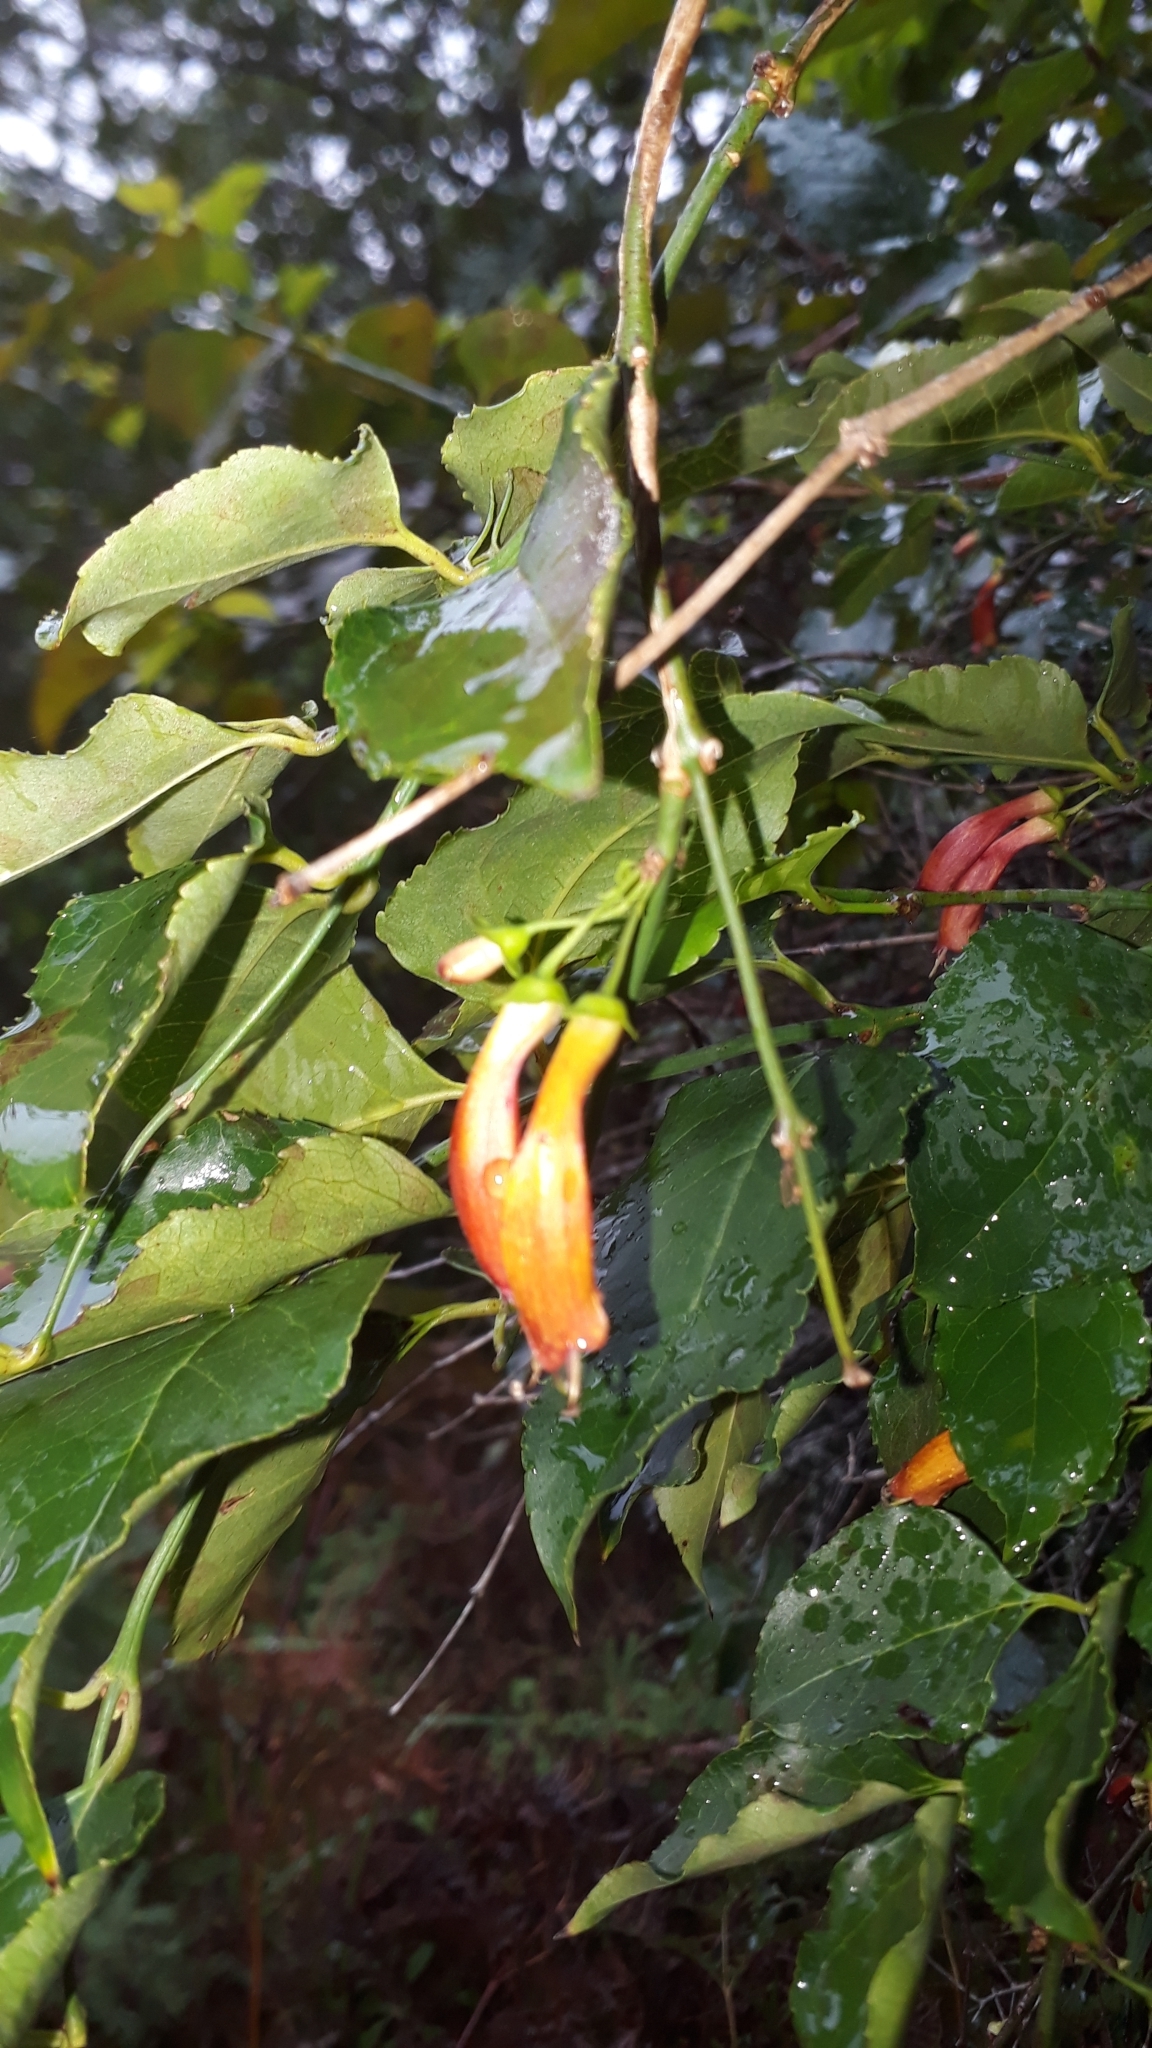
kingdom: Plantae
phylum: Tracheophyta
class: Magnoliopsida
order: Lamiales
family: Stilbaceae
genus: Halleria
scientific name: Halleria lucida
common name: Tree fuschia
